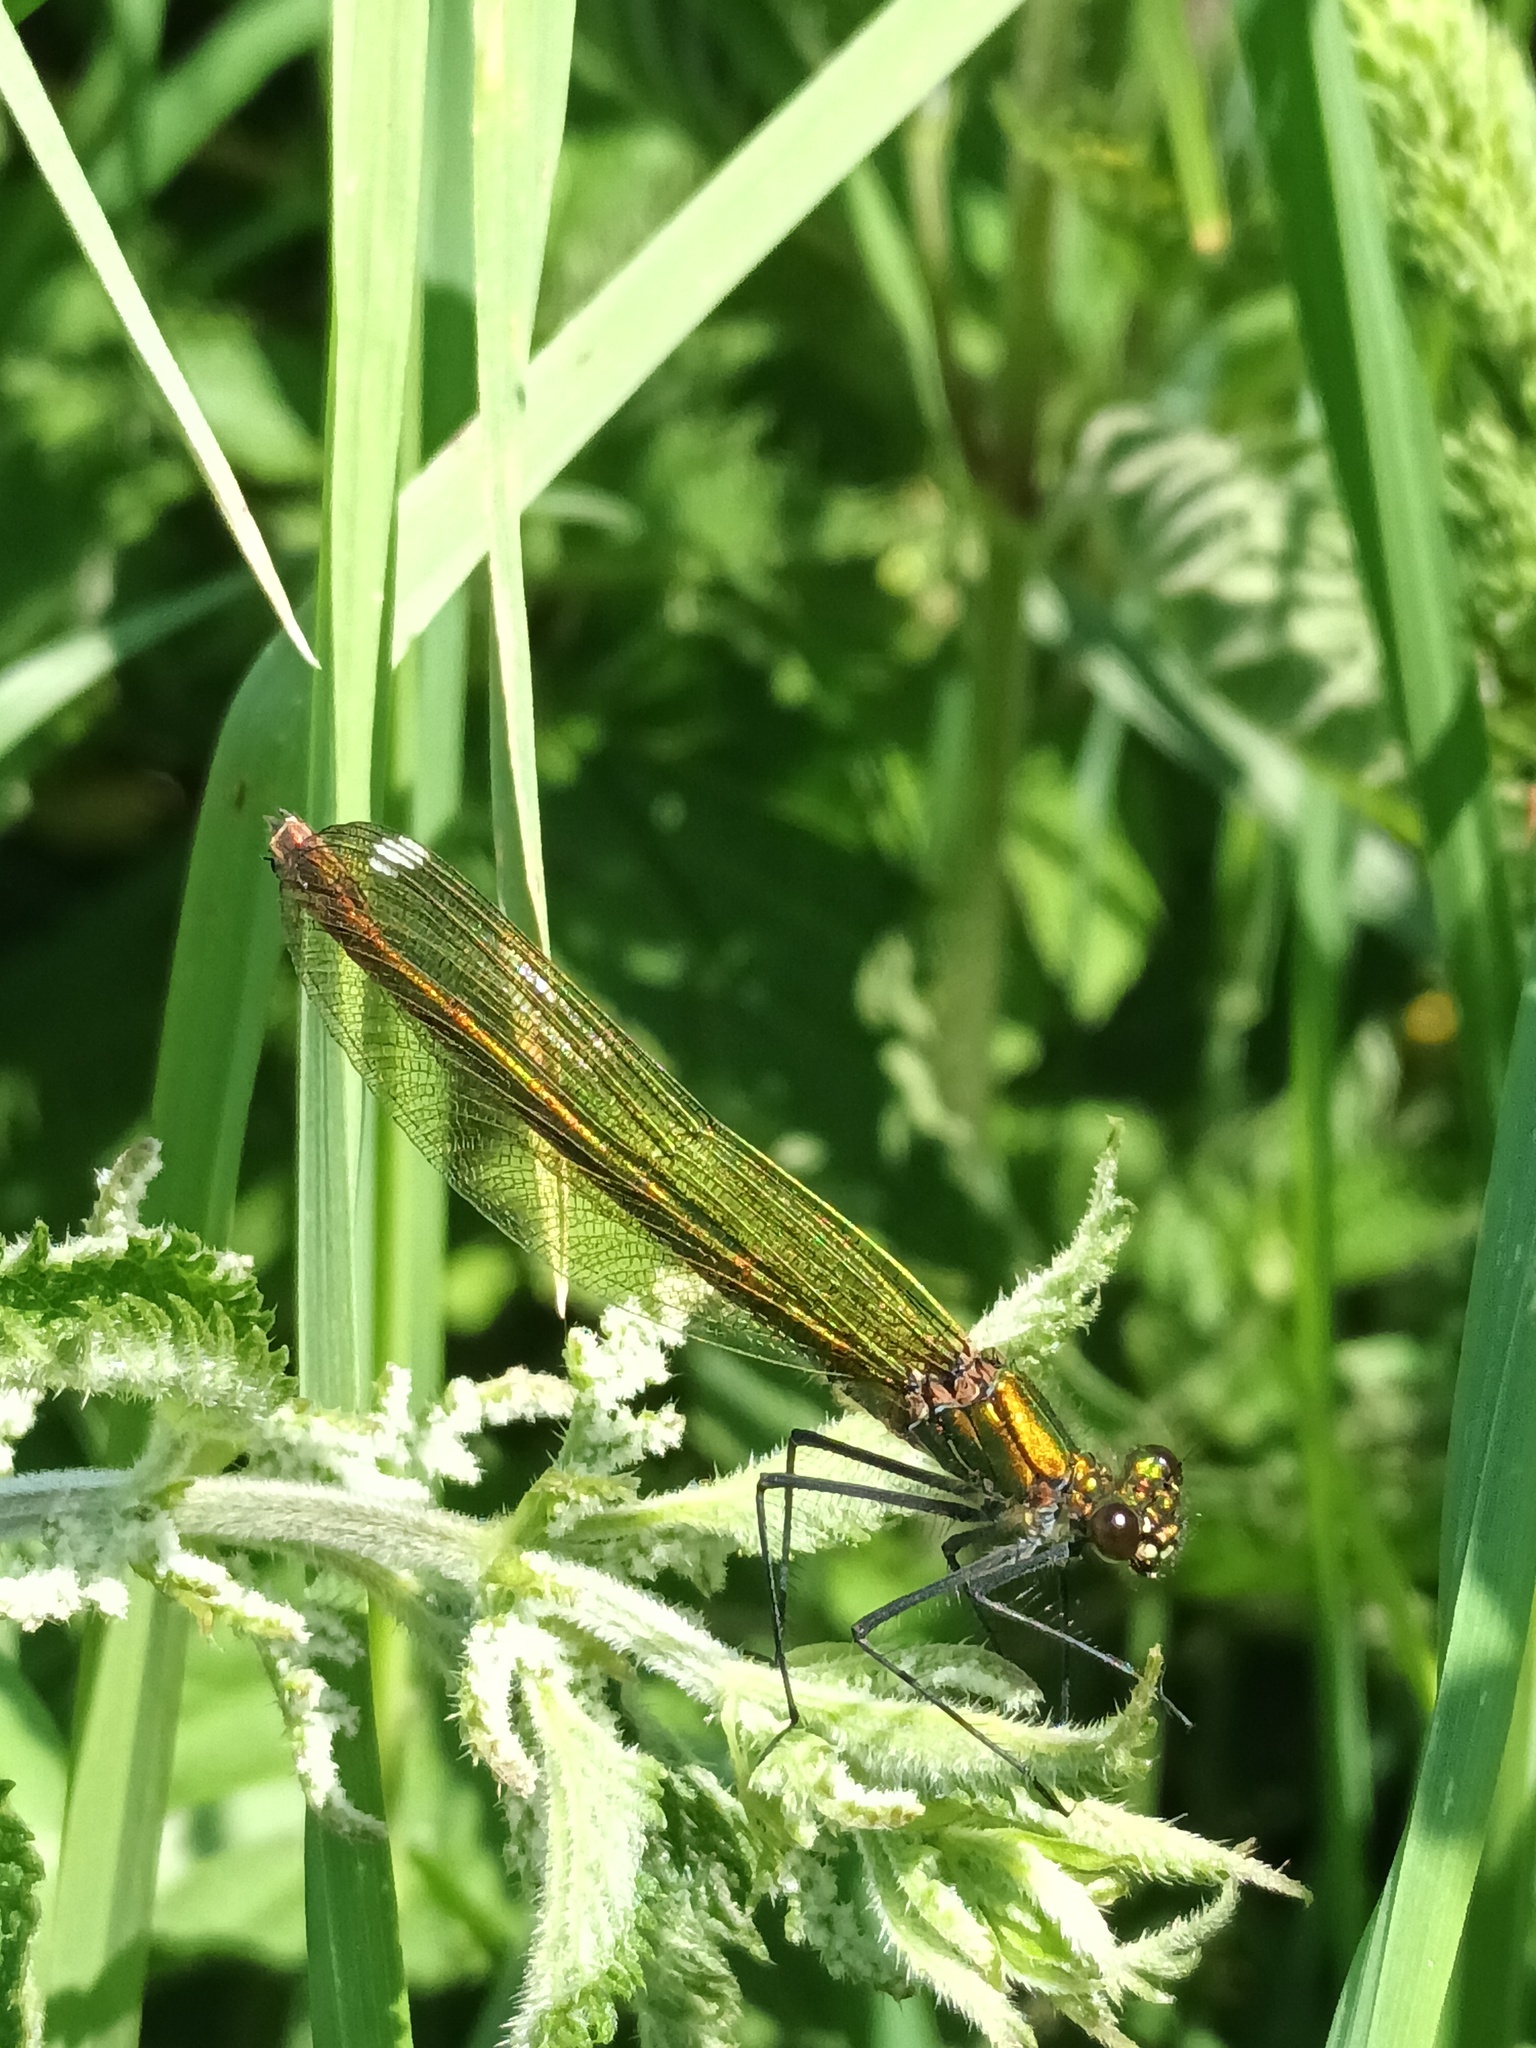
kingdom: Animalia
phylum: Arthropoda
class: Insecta
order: Odonata
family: Calopterygidae
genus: Calopteryx
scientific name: Calopteryx splendens
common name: Banded demoiselle
